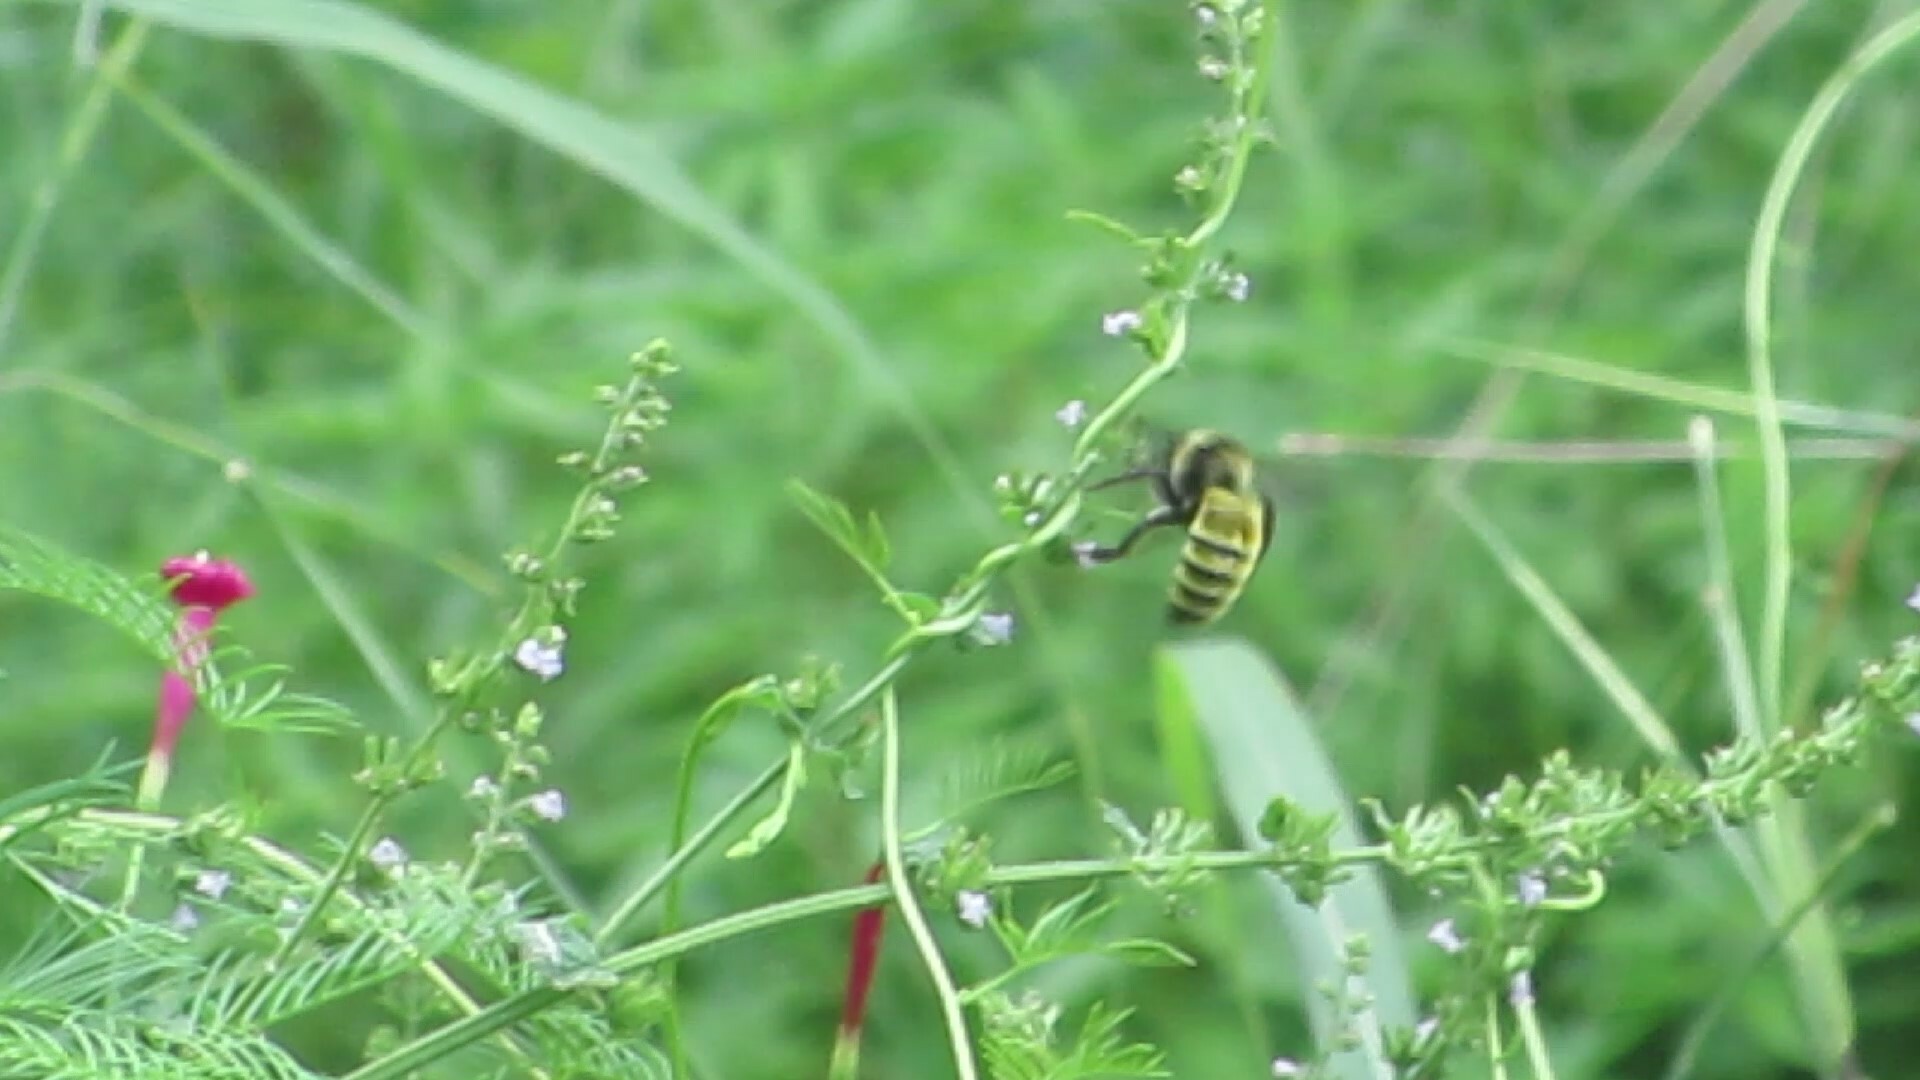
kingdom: Animalia
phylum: Arthropoda
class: Insecta
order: Hymenoptera
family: Apidae
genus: Bombus
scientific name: Bombus pensylvanicus
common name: Bumble bee
